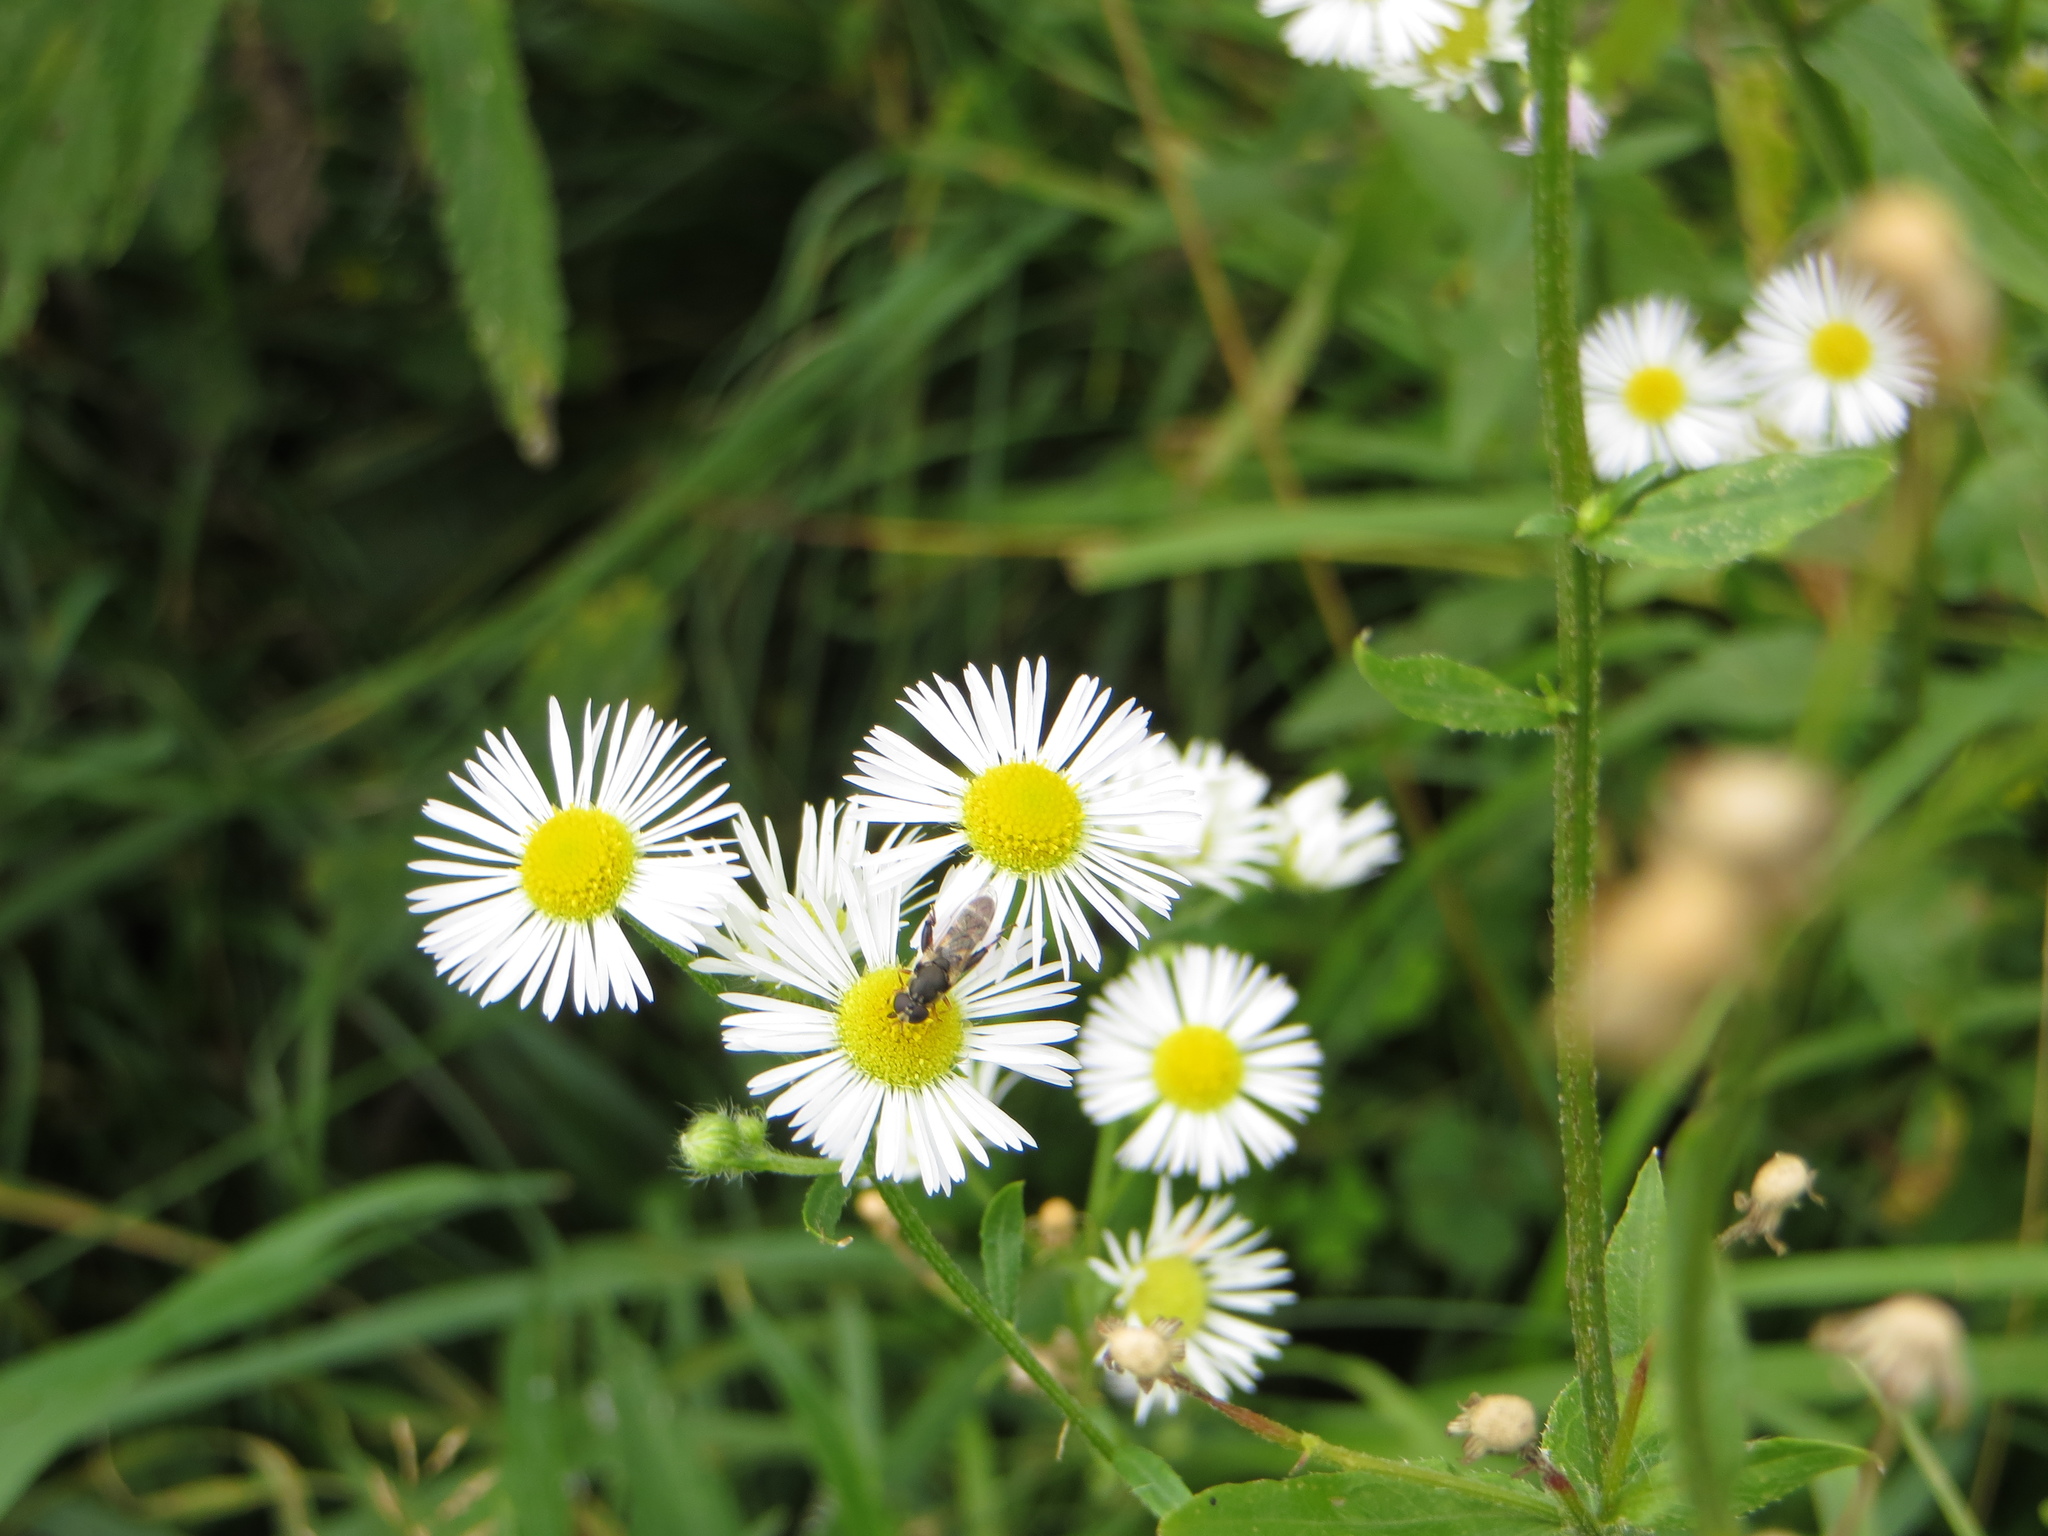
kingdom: Animalia
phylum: Arthropoda
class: Insecta
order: Diptera
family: Syrphidae
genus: Syritta
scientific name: Syritta pipiens
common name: Hover fly
